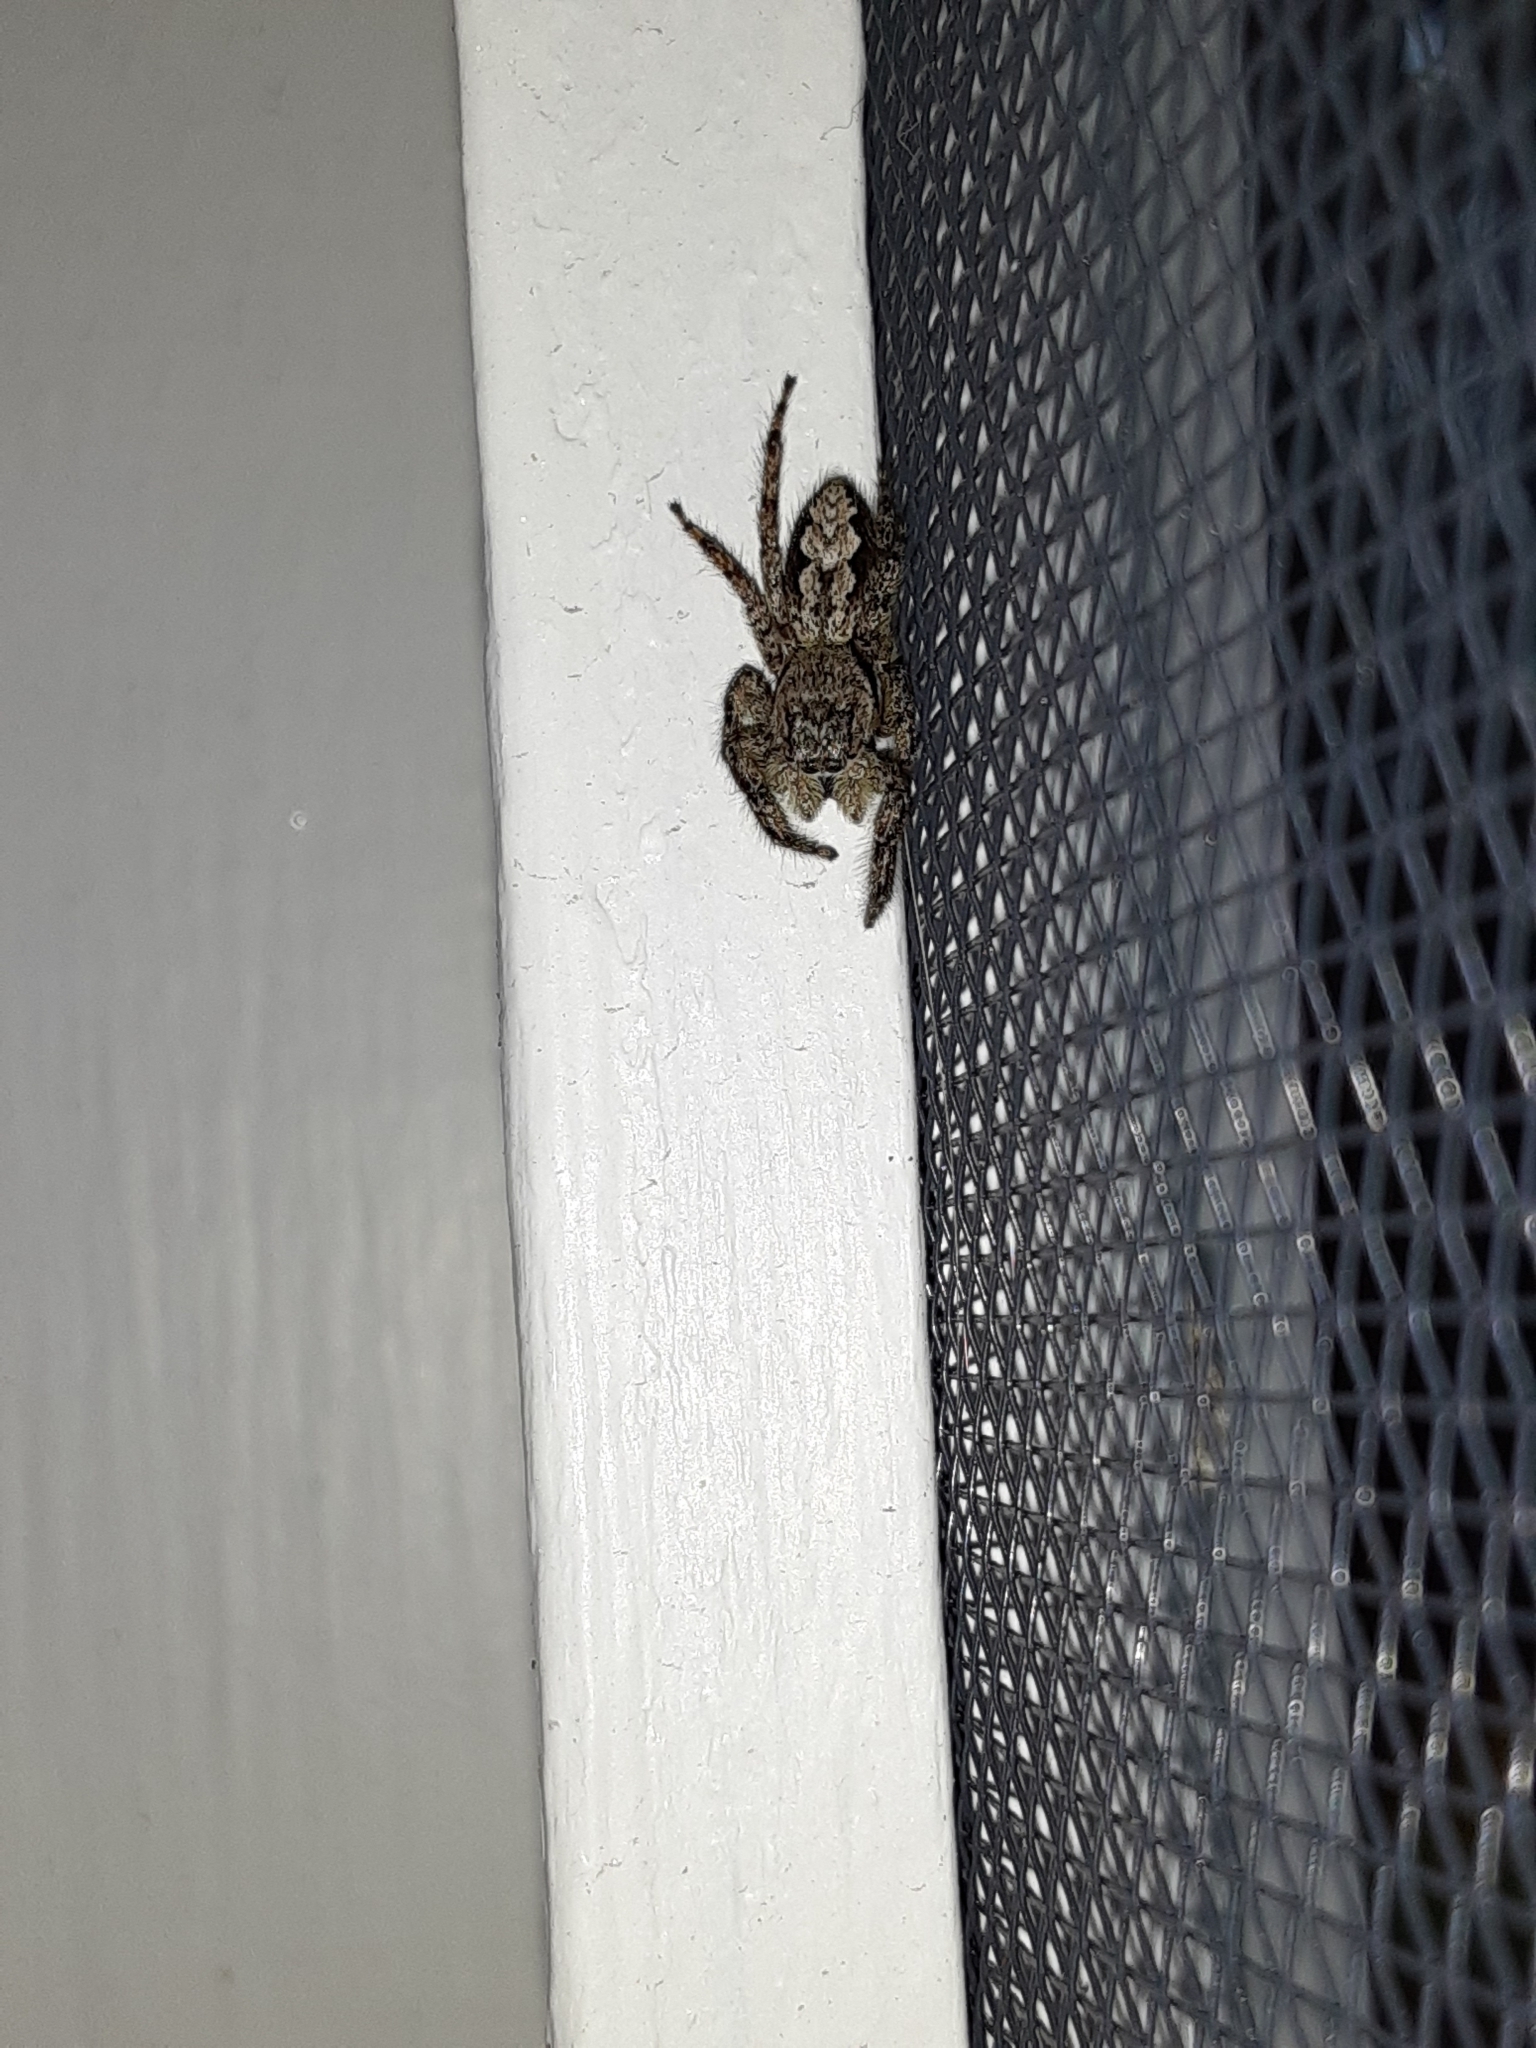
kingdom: Animalia
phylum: Arthropoda
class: Arachnida
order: Araneae
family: Salticidae
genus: Platycryptus
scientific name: Platycryptus undatus
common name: Tan jumping spider
